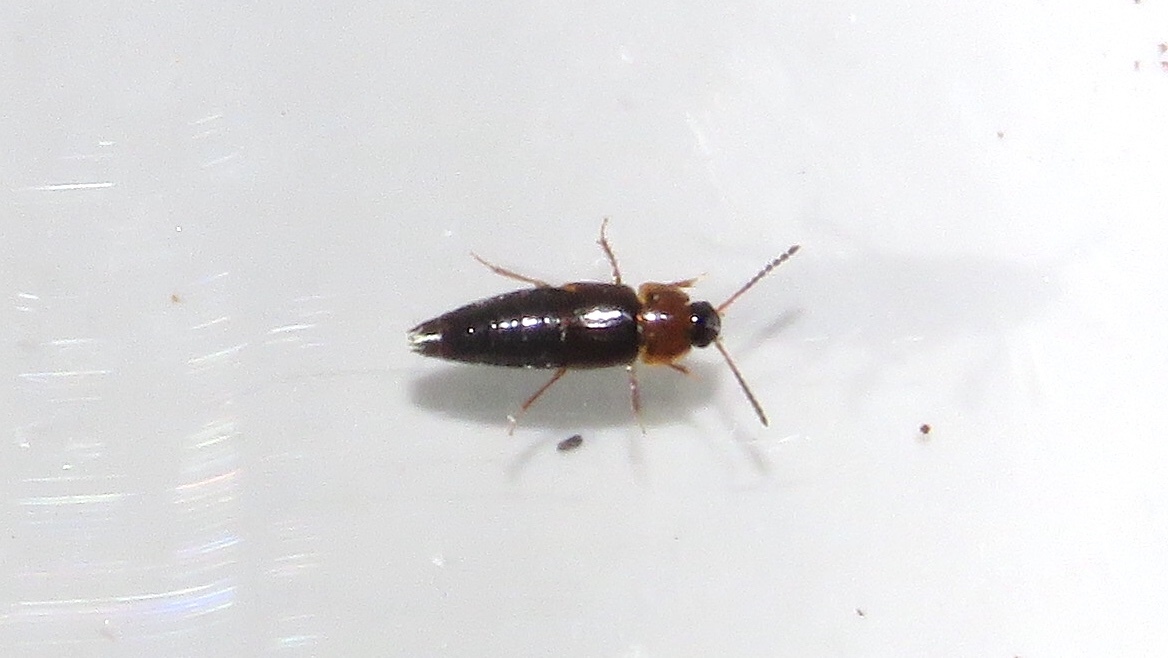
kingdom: Animalia
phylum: Arthropoda
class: Insecta
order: Coleoptera
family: Staphylinidae
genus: Tachinus
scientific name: Tachinus corticinus
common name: Staph beetle
